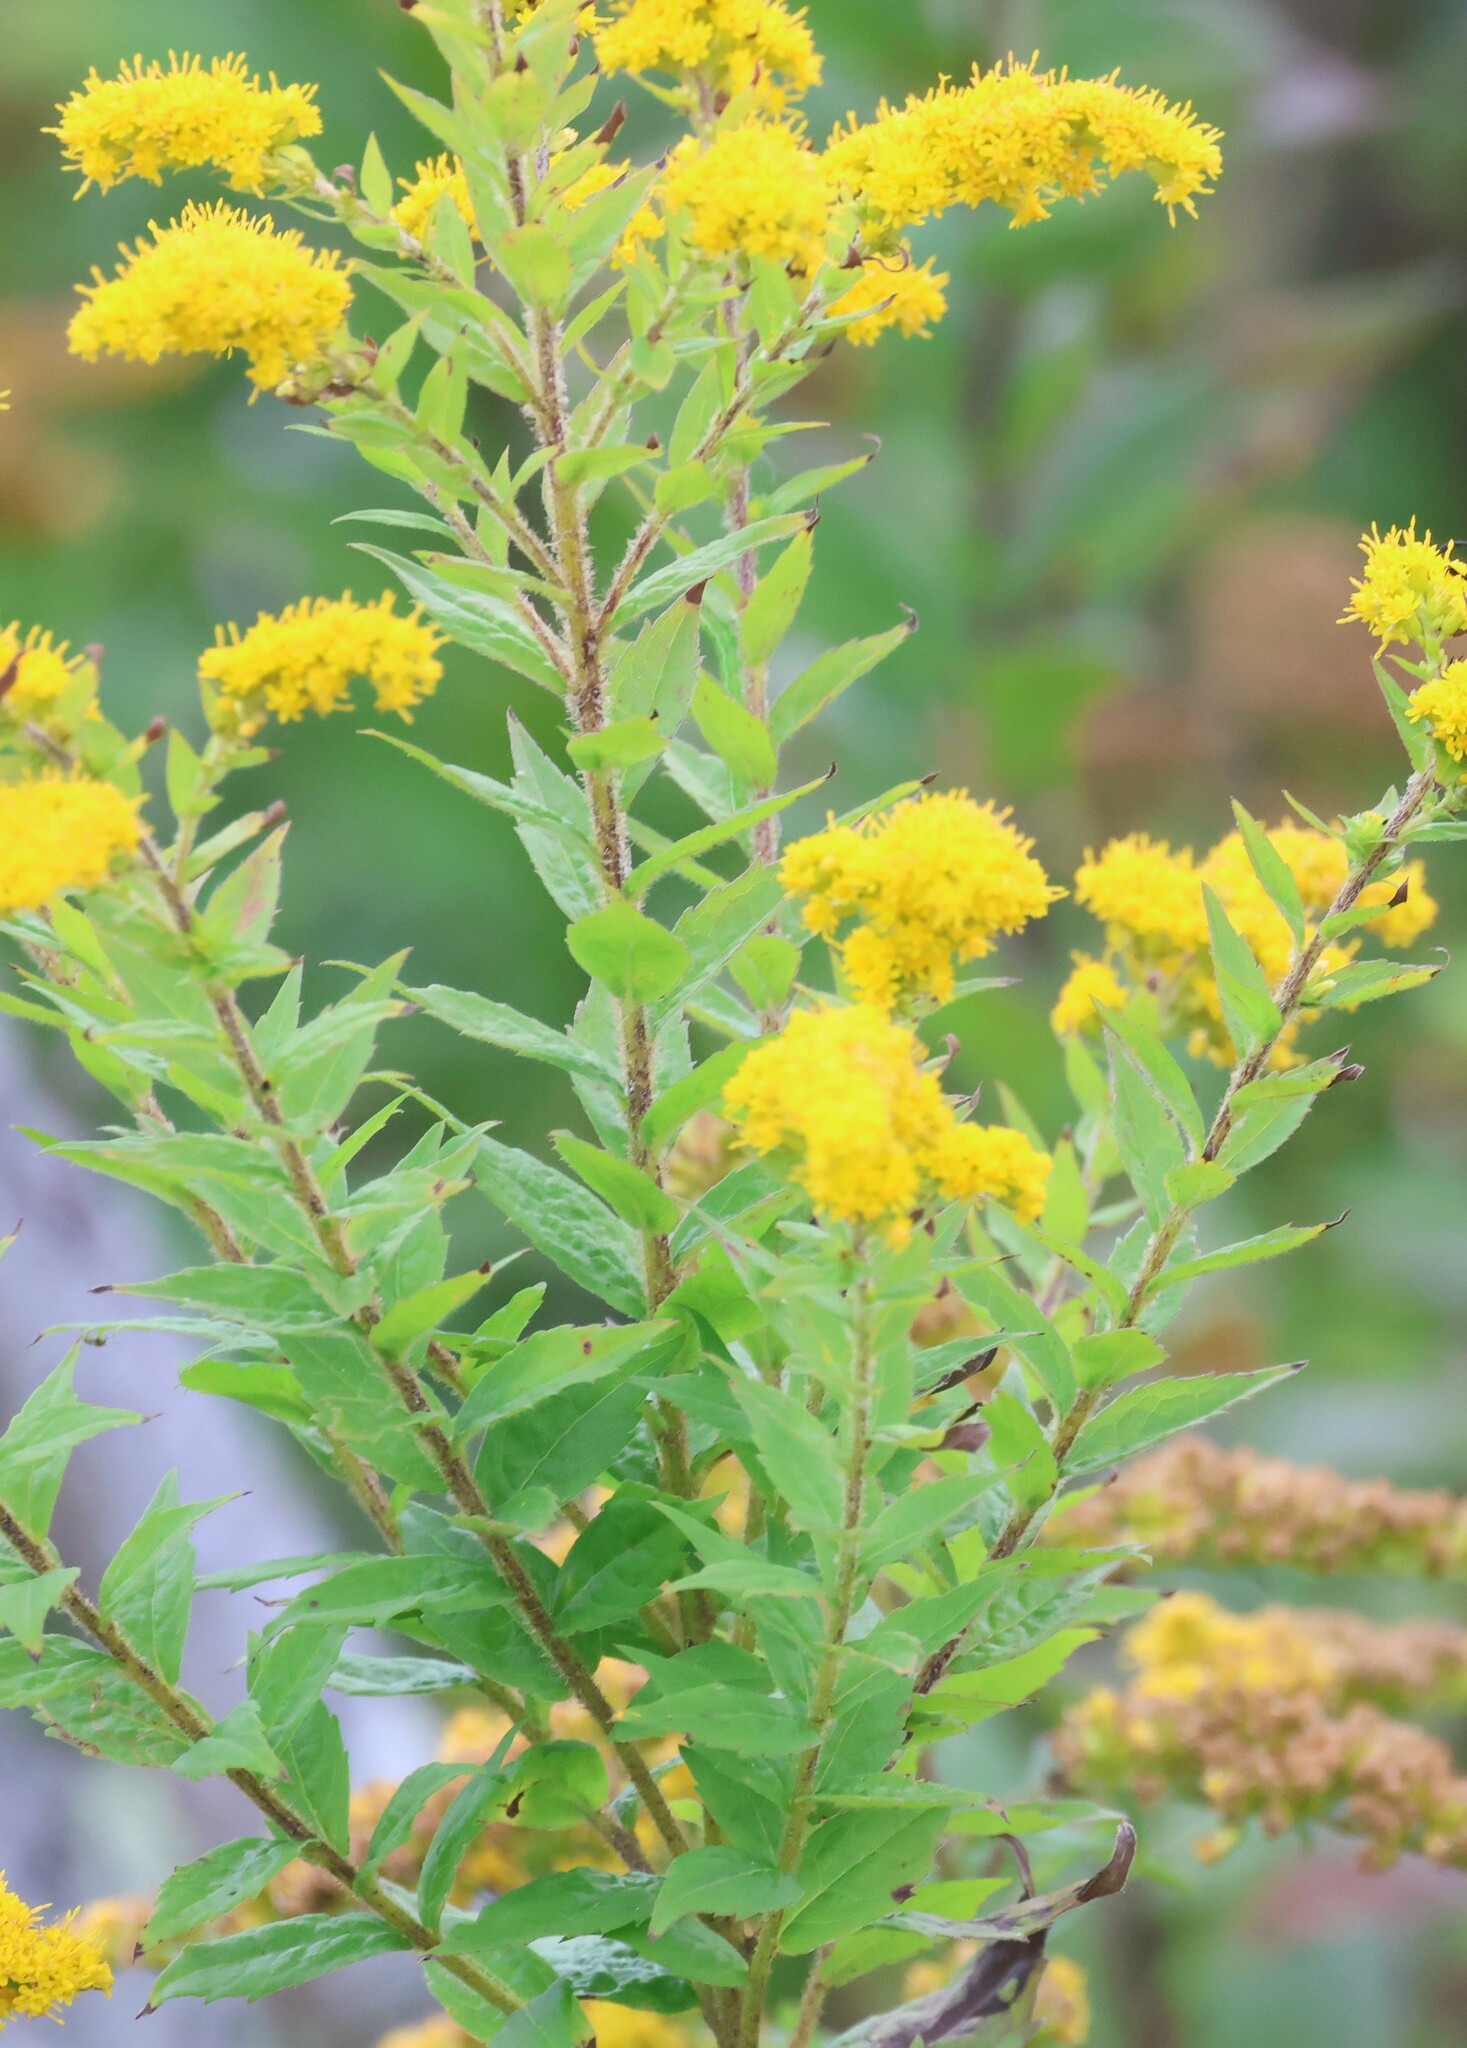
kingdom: Plantae
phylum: Tracheophyta
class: Magnoliopsida
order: Asterales
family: Asteraceae
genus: Solidago
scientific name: Solidago rugosa
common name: Rough-stemmed goldenrod
